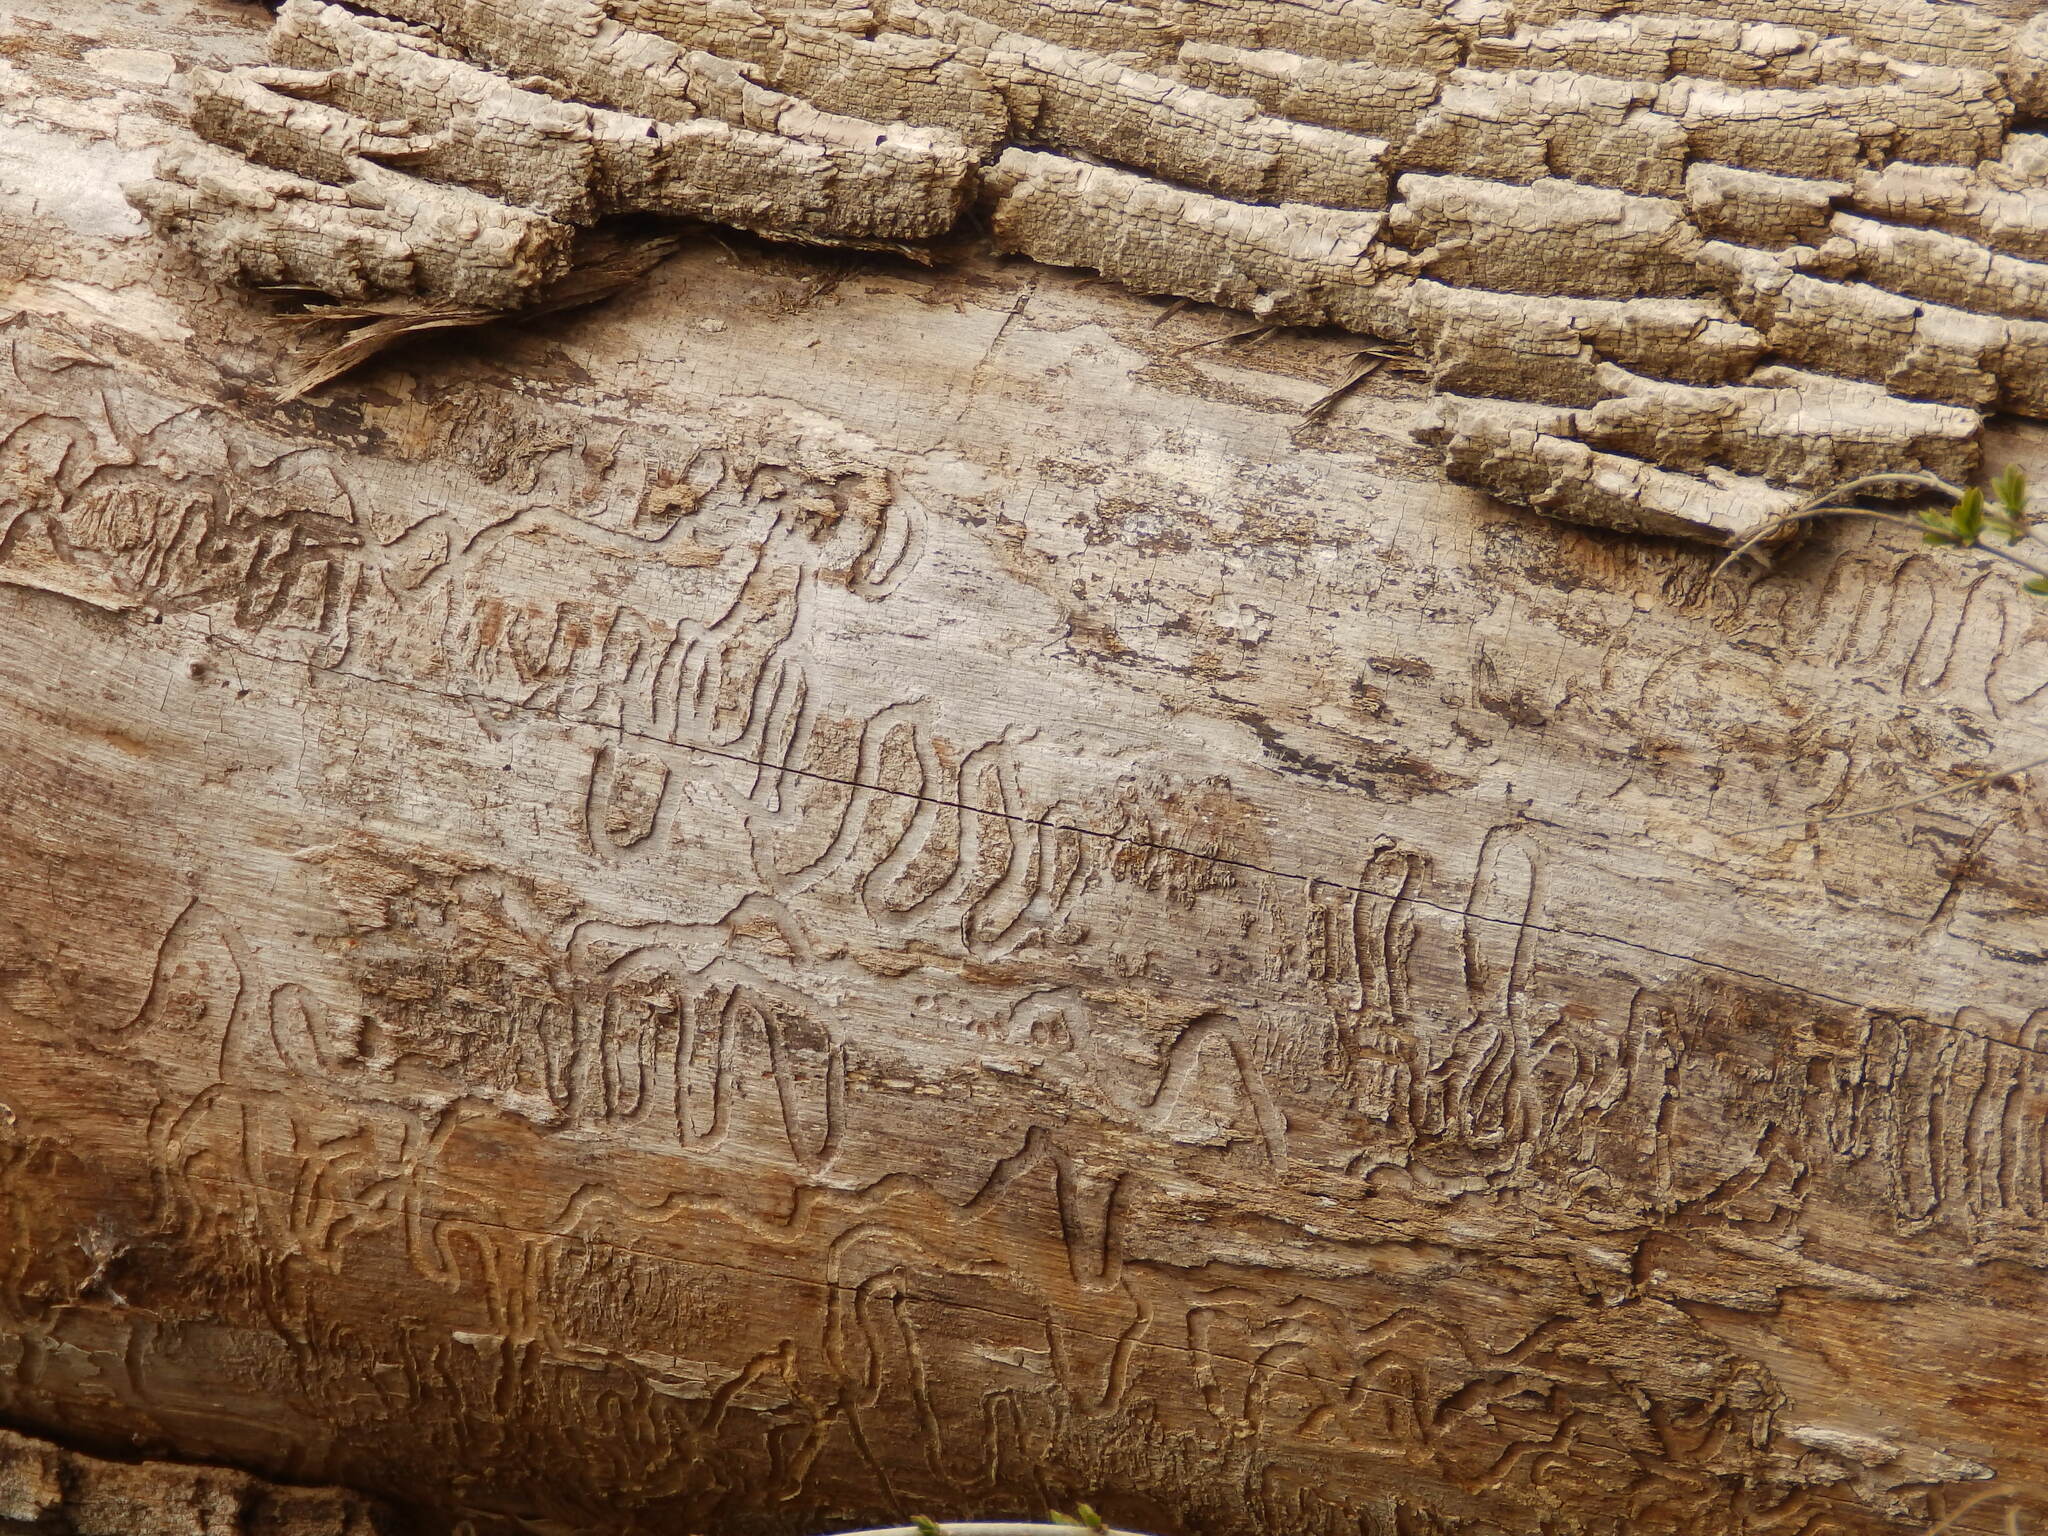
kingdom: Animalia
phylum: Arthropoda
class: Insecta
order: Coleoptera
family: Buprestidae
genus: Agrilus
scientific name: Agrilus planipennis
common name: Emerald ash borer
